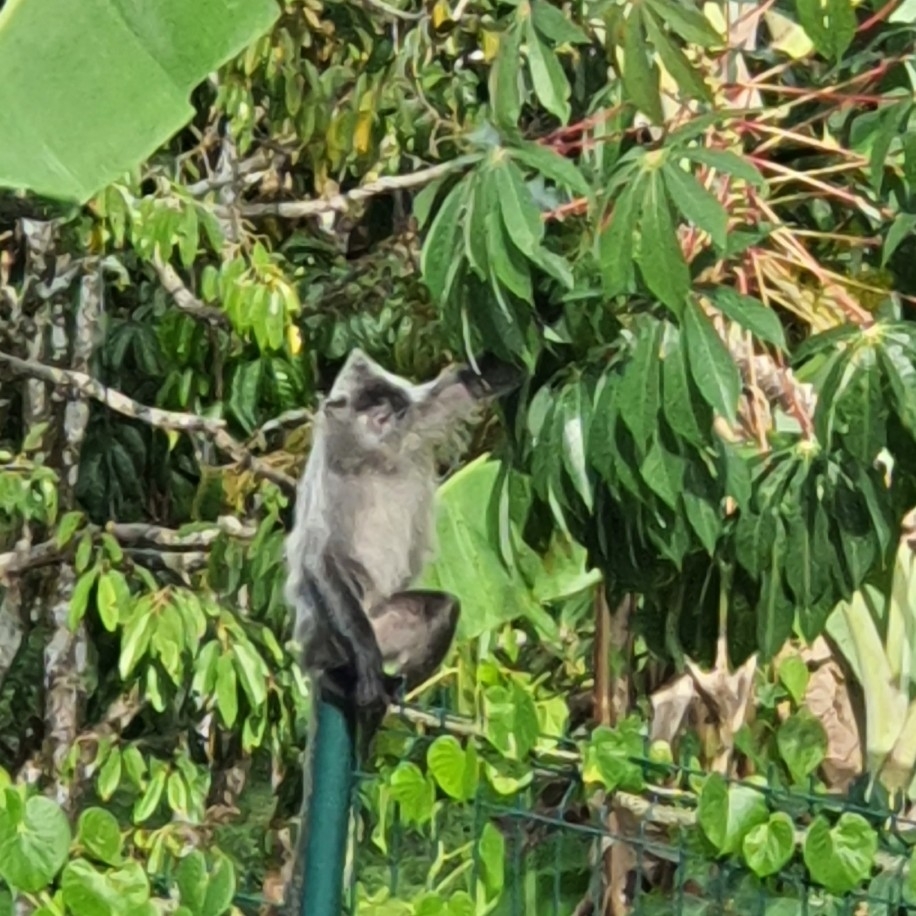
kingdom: Animalia
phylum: Chordata
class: Mammalia
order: Primates
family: Cercopithecidae
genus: Trachypithecus
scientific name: Trachypithecus cristatus
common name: Silvery lutung
